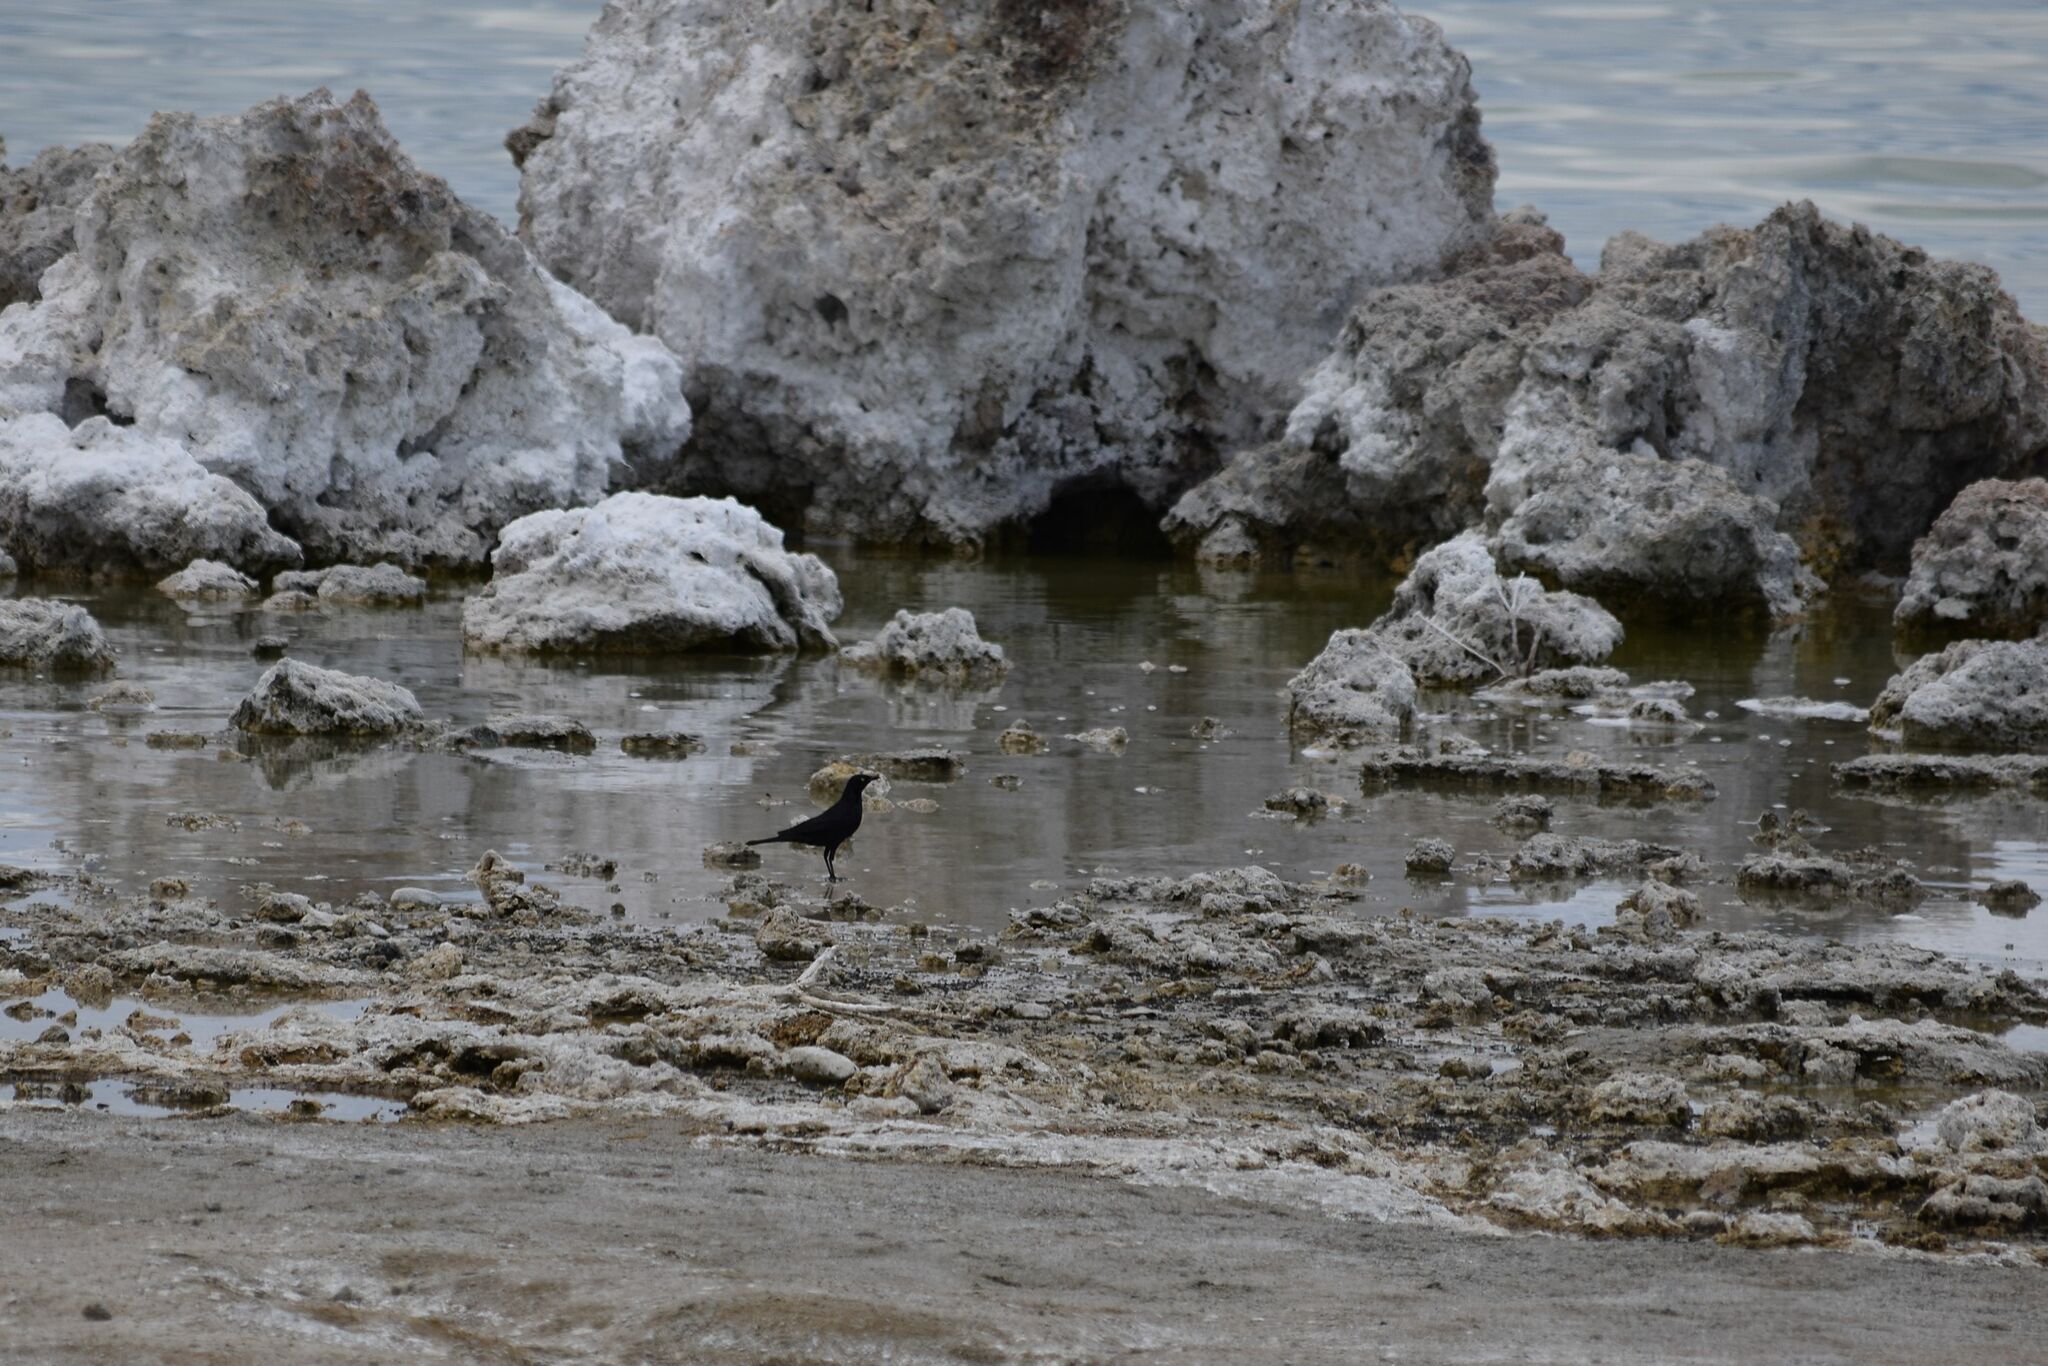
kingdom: Animalia
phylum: Chordata
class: Aves
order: Passeriformes
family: Icteridae
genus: Euphagus
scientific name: Euphagus cyanocephalus
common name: Brewer's blackbird
